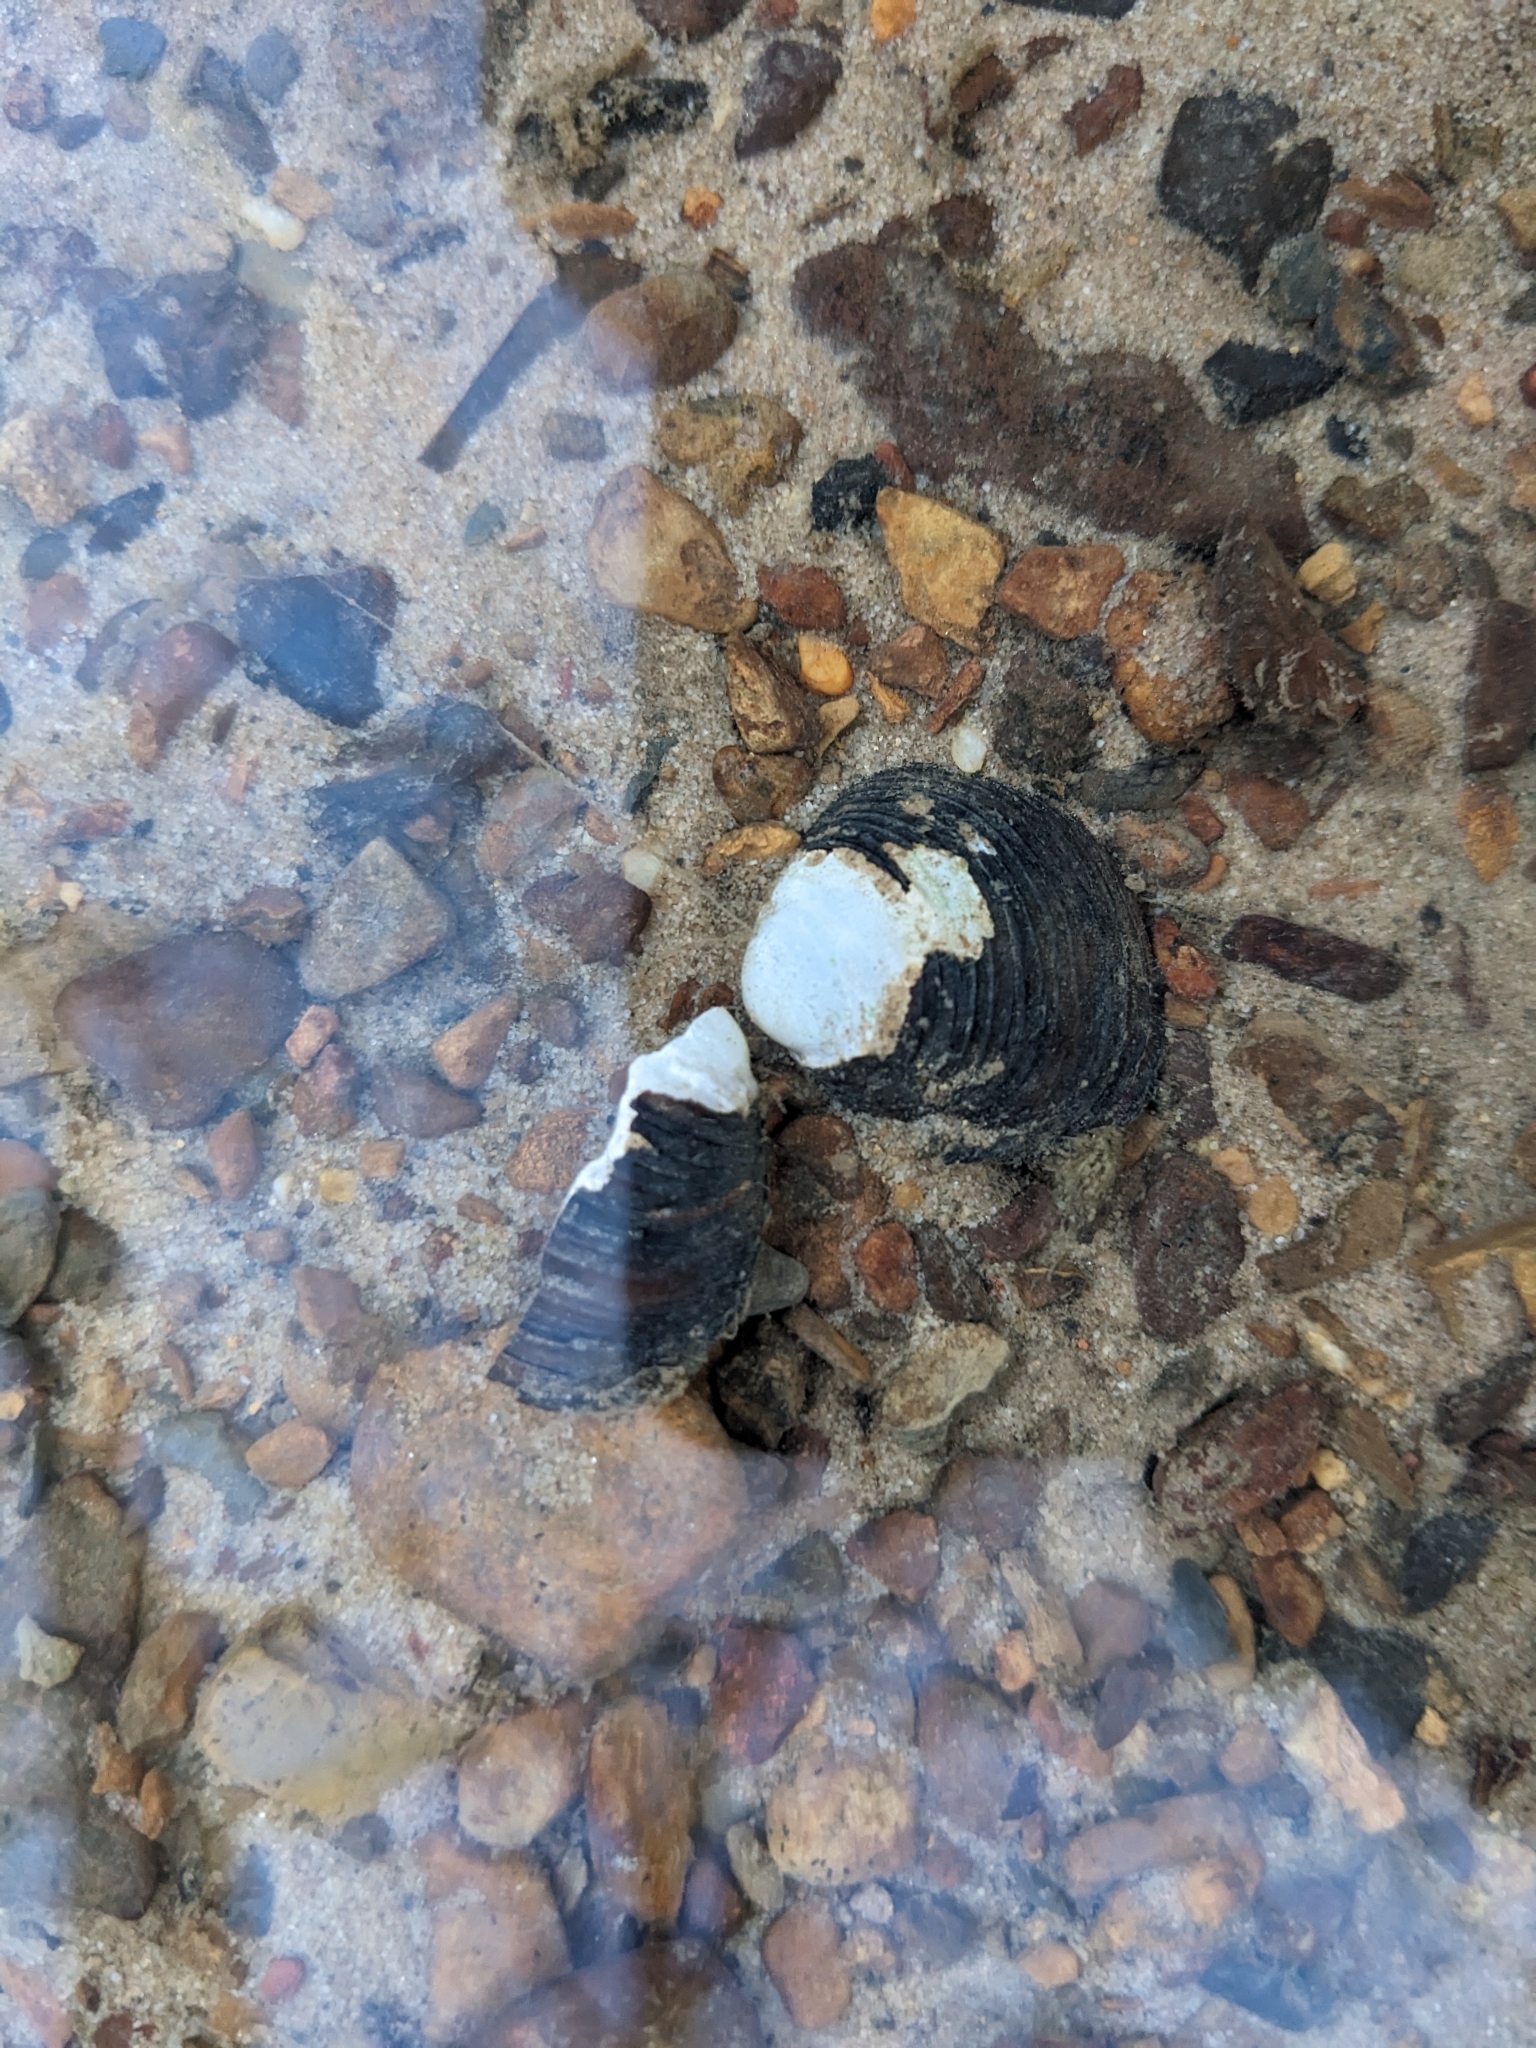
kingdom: Animalia
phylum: Mollusca
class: Bivalvia
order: Venerida
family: Cyrenidae
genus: Corbicula
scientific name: Corbicula fluminea
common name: Asian clam
